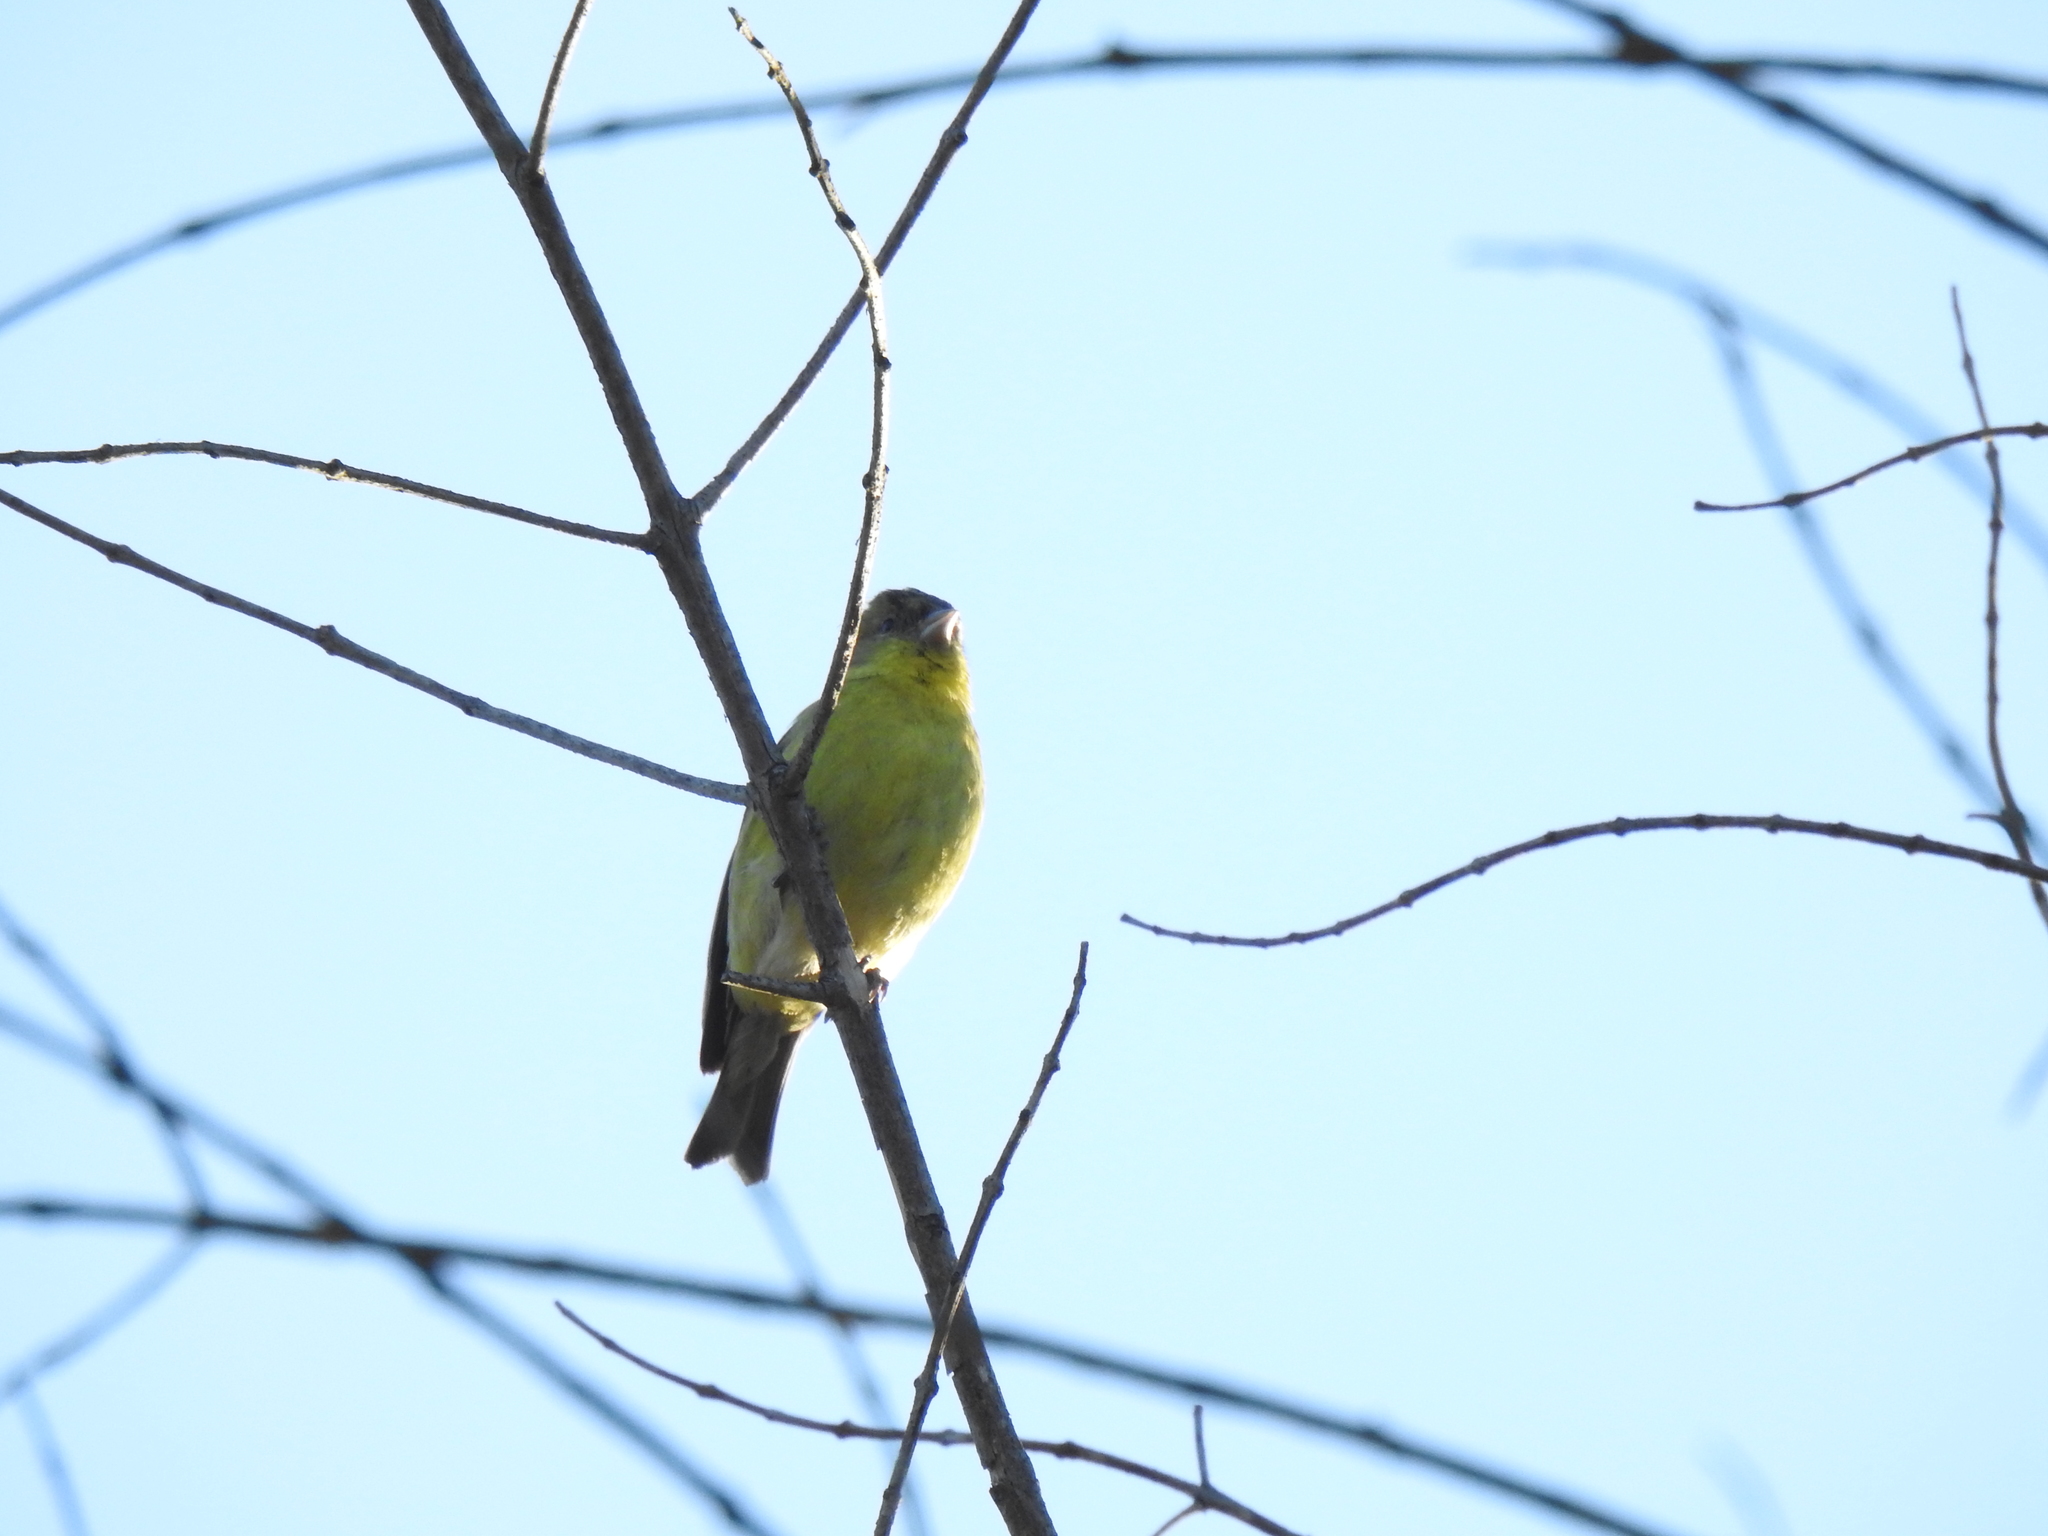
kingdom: Animalia
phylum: Chordata
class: Aves
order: Passeriformes
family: Fringillidae
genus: Spinus
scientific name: Spinus psaltria
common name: Lesser goldfinch
